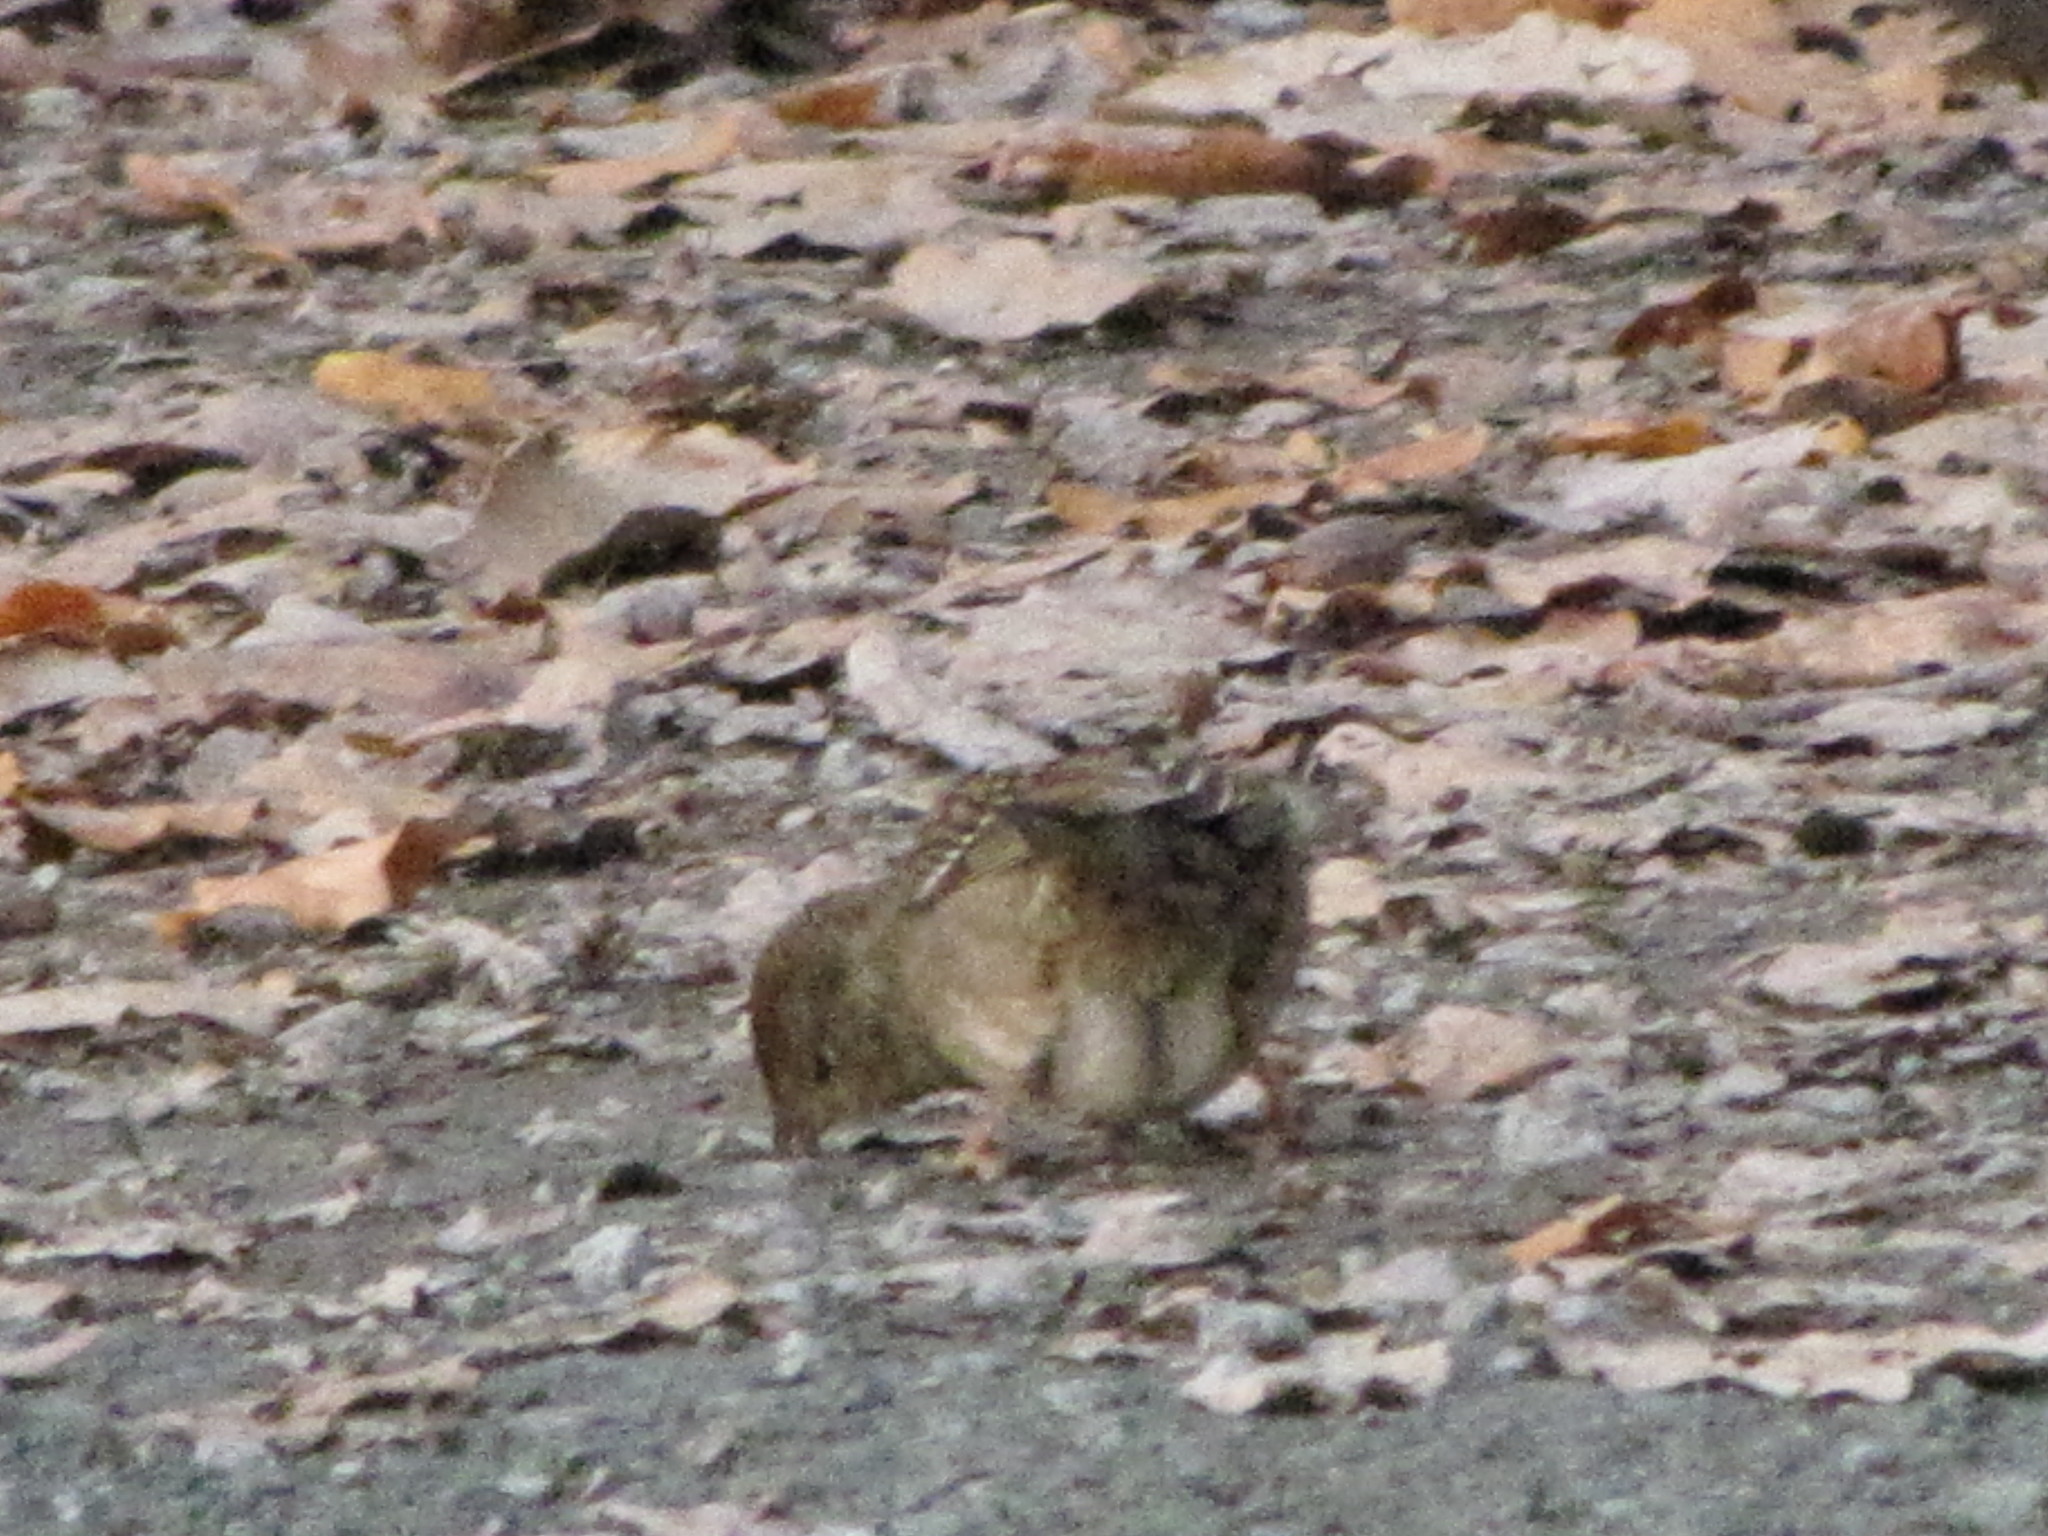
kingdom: Animalia
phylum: Chordata
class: Aves
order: Passeriformes
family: Passerellidae
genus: Zonotrichia
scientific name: Zonotrichia atricapilla
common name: Golden-crowned sparrow
